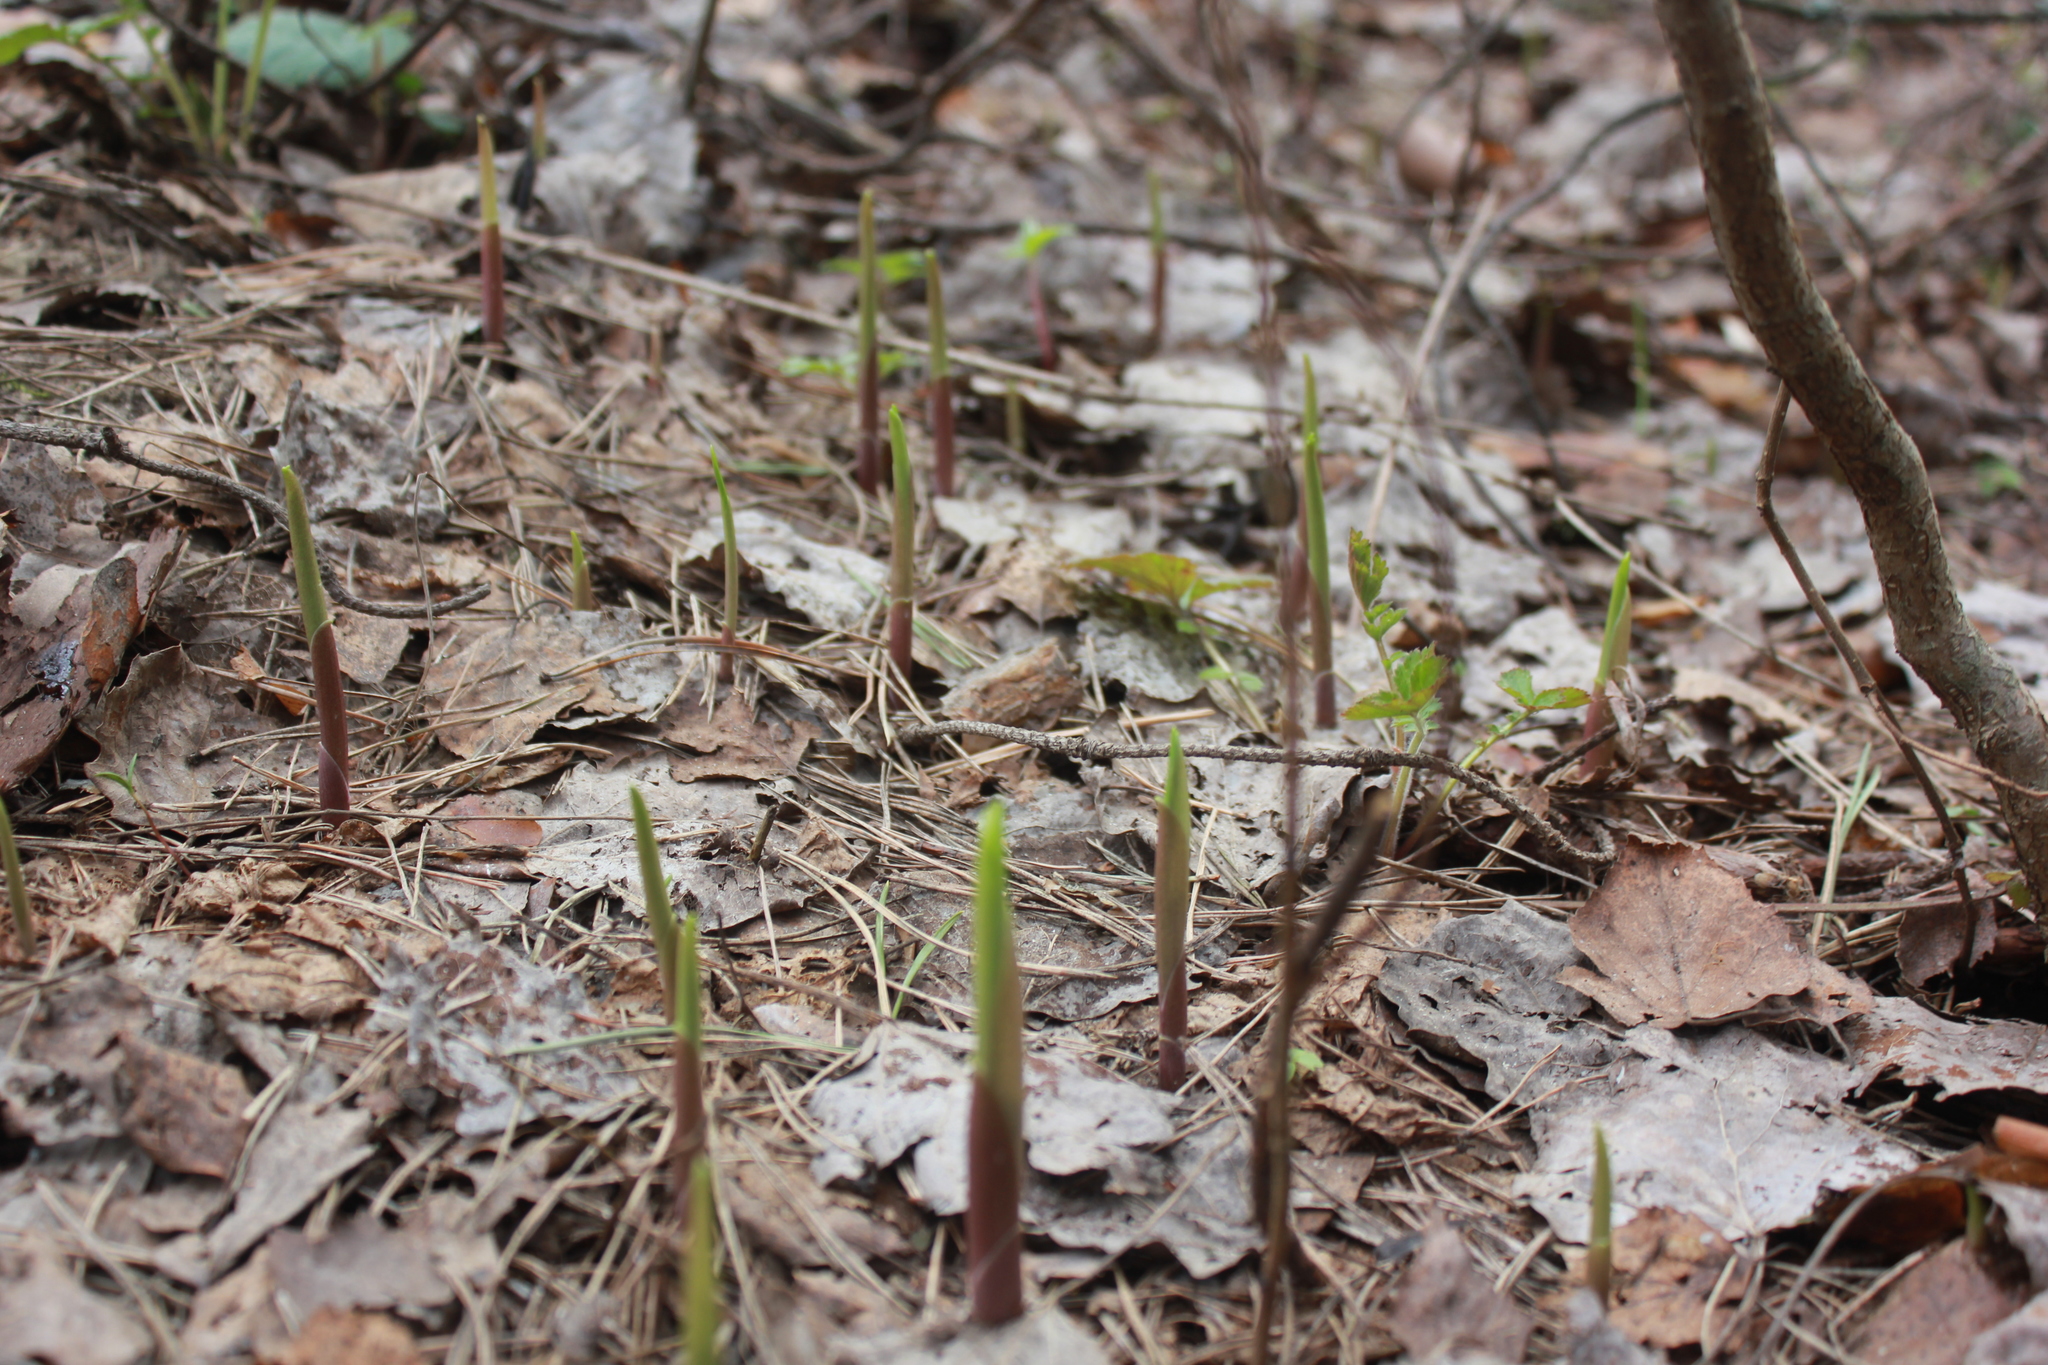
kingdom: Plantae
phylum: Tracheophyta
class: Liliopsida
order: Asparagales
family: Asparagaceae
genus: Convallaria
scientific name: Convallaria majalis
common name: Lily-of-the-valley
